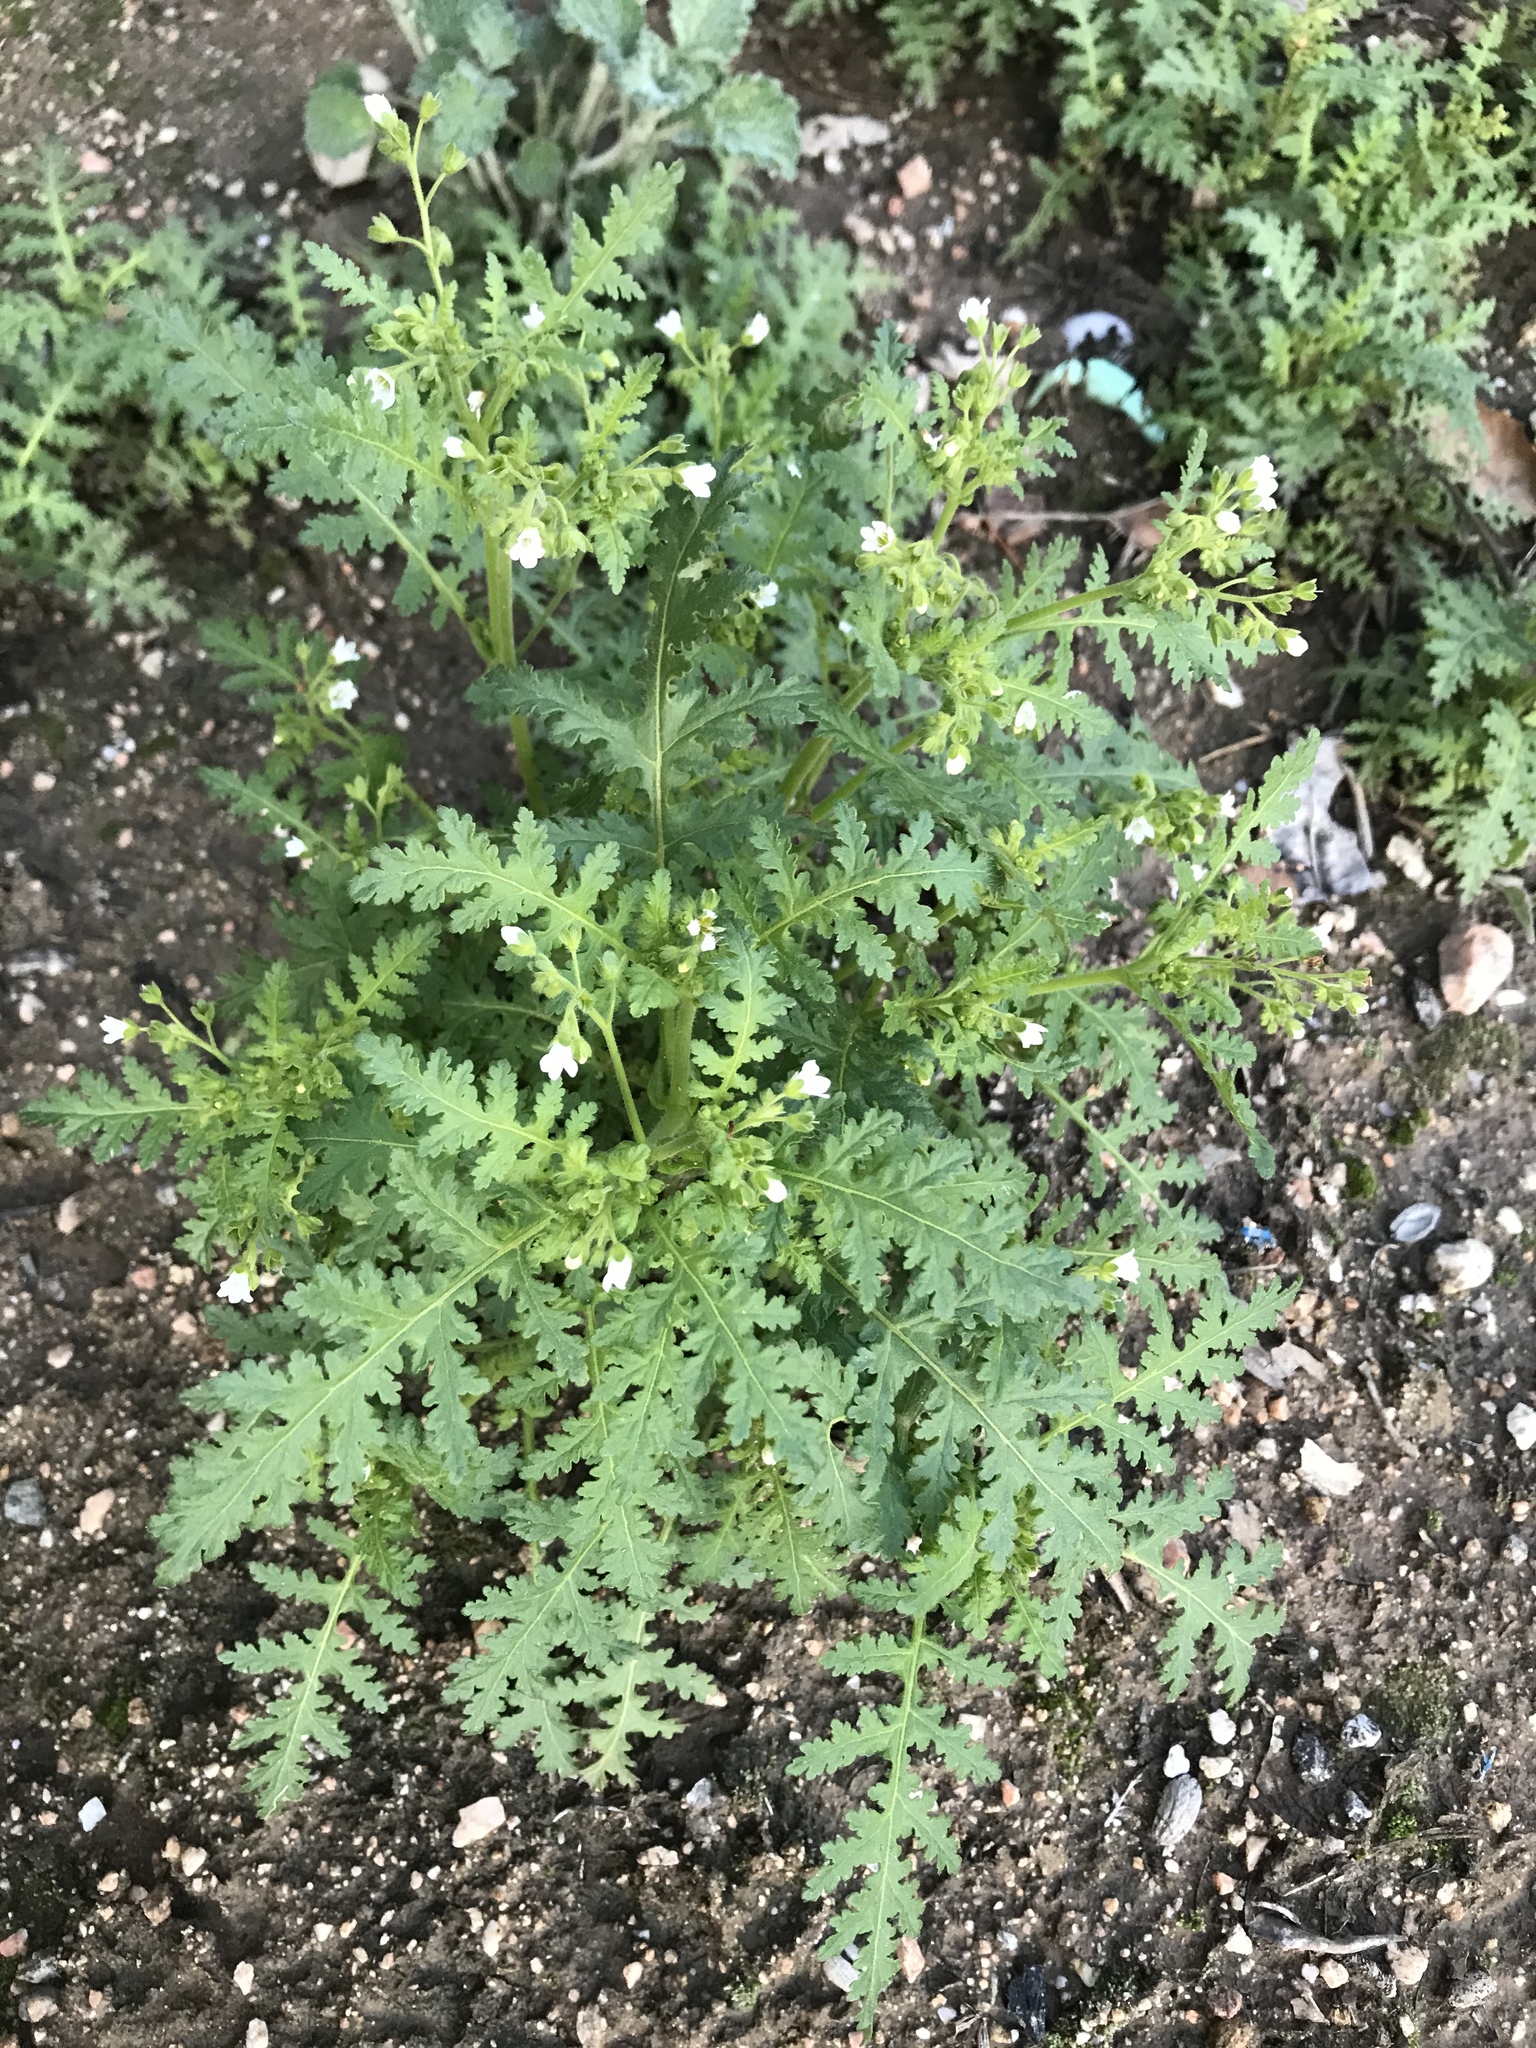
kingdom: Plantae
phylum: Tracheophyta
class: Magnoliopsida
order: Boraginales
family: Hydrophyllaceae
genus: Eucrypta
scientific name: Eucrypta chrysanthemifolia
